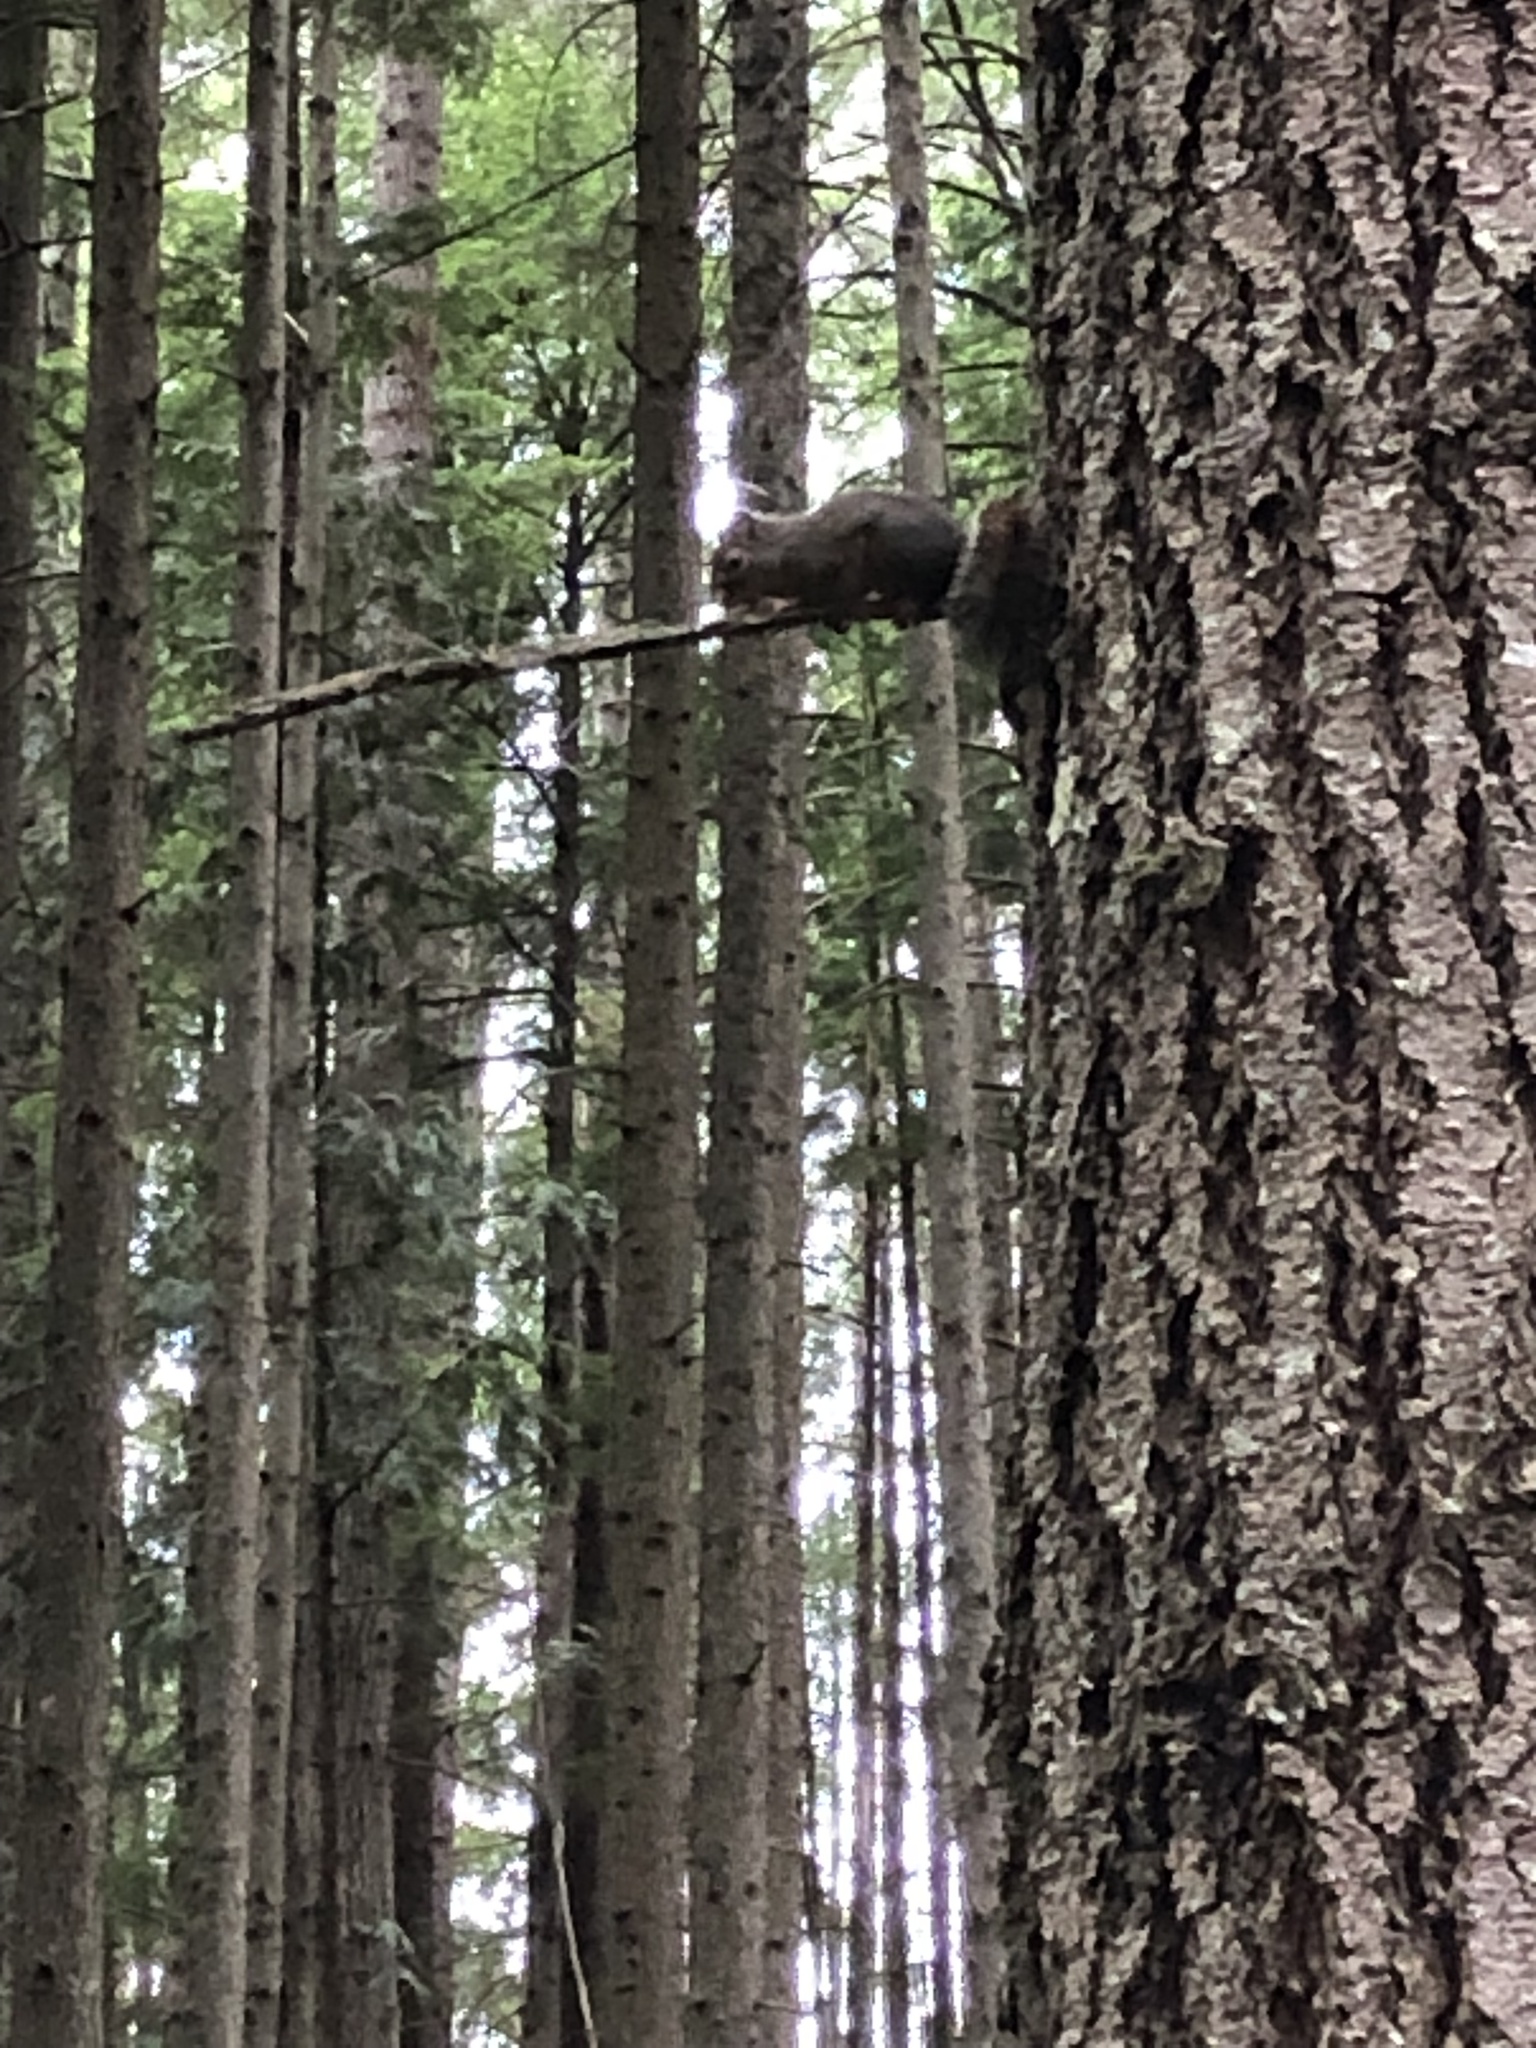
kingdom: Animalia
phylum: Chordata
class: Mammalia
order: Rodentia
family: Sciuridae
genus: Tamiasciurus
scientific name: Tamiasciurus douglasii
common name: Douglas's squirrel
